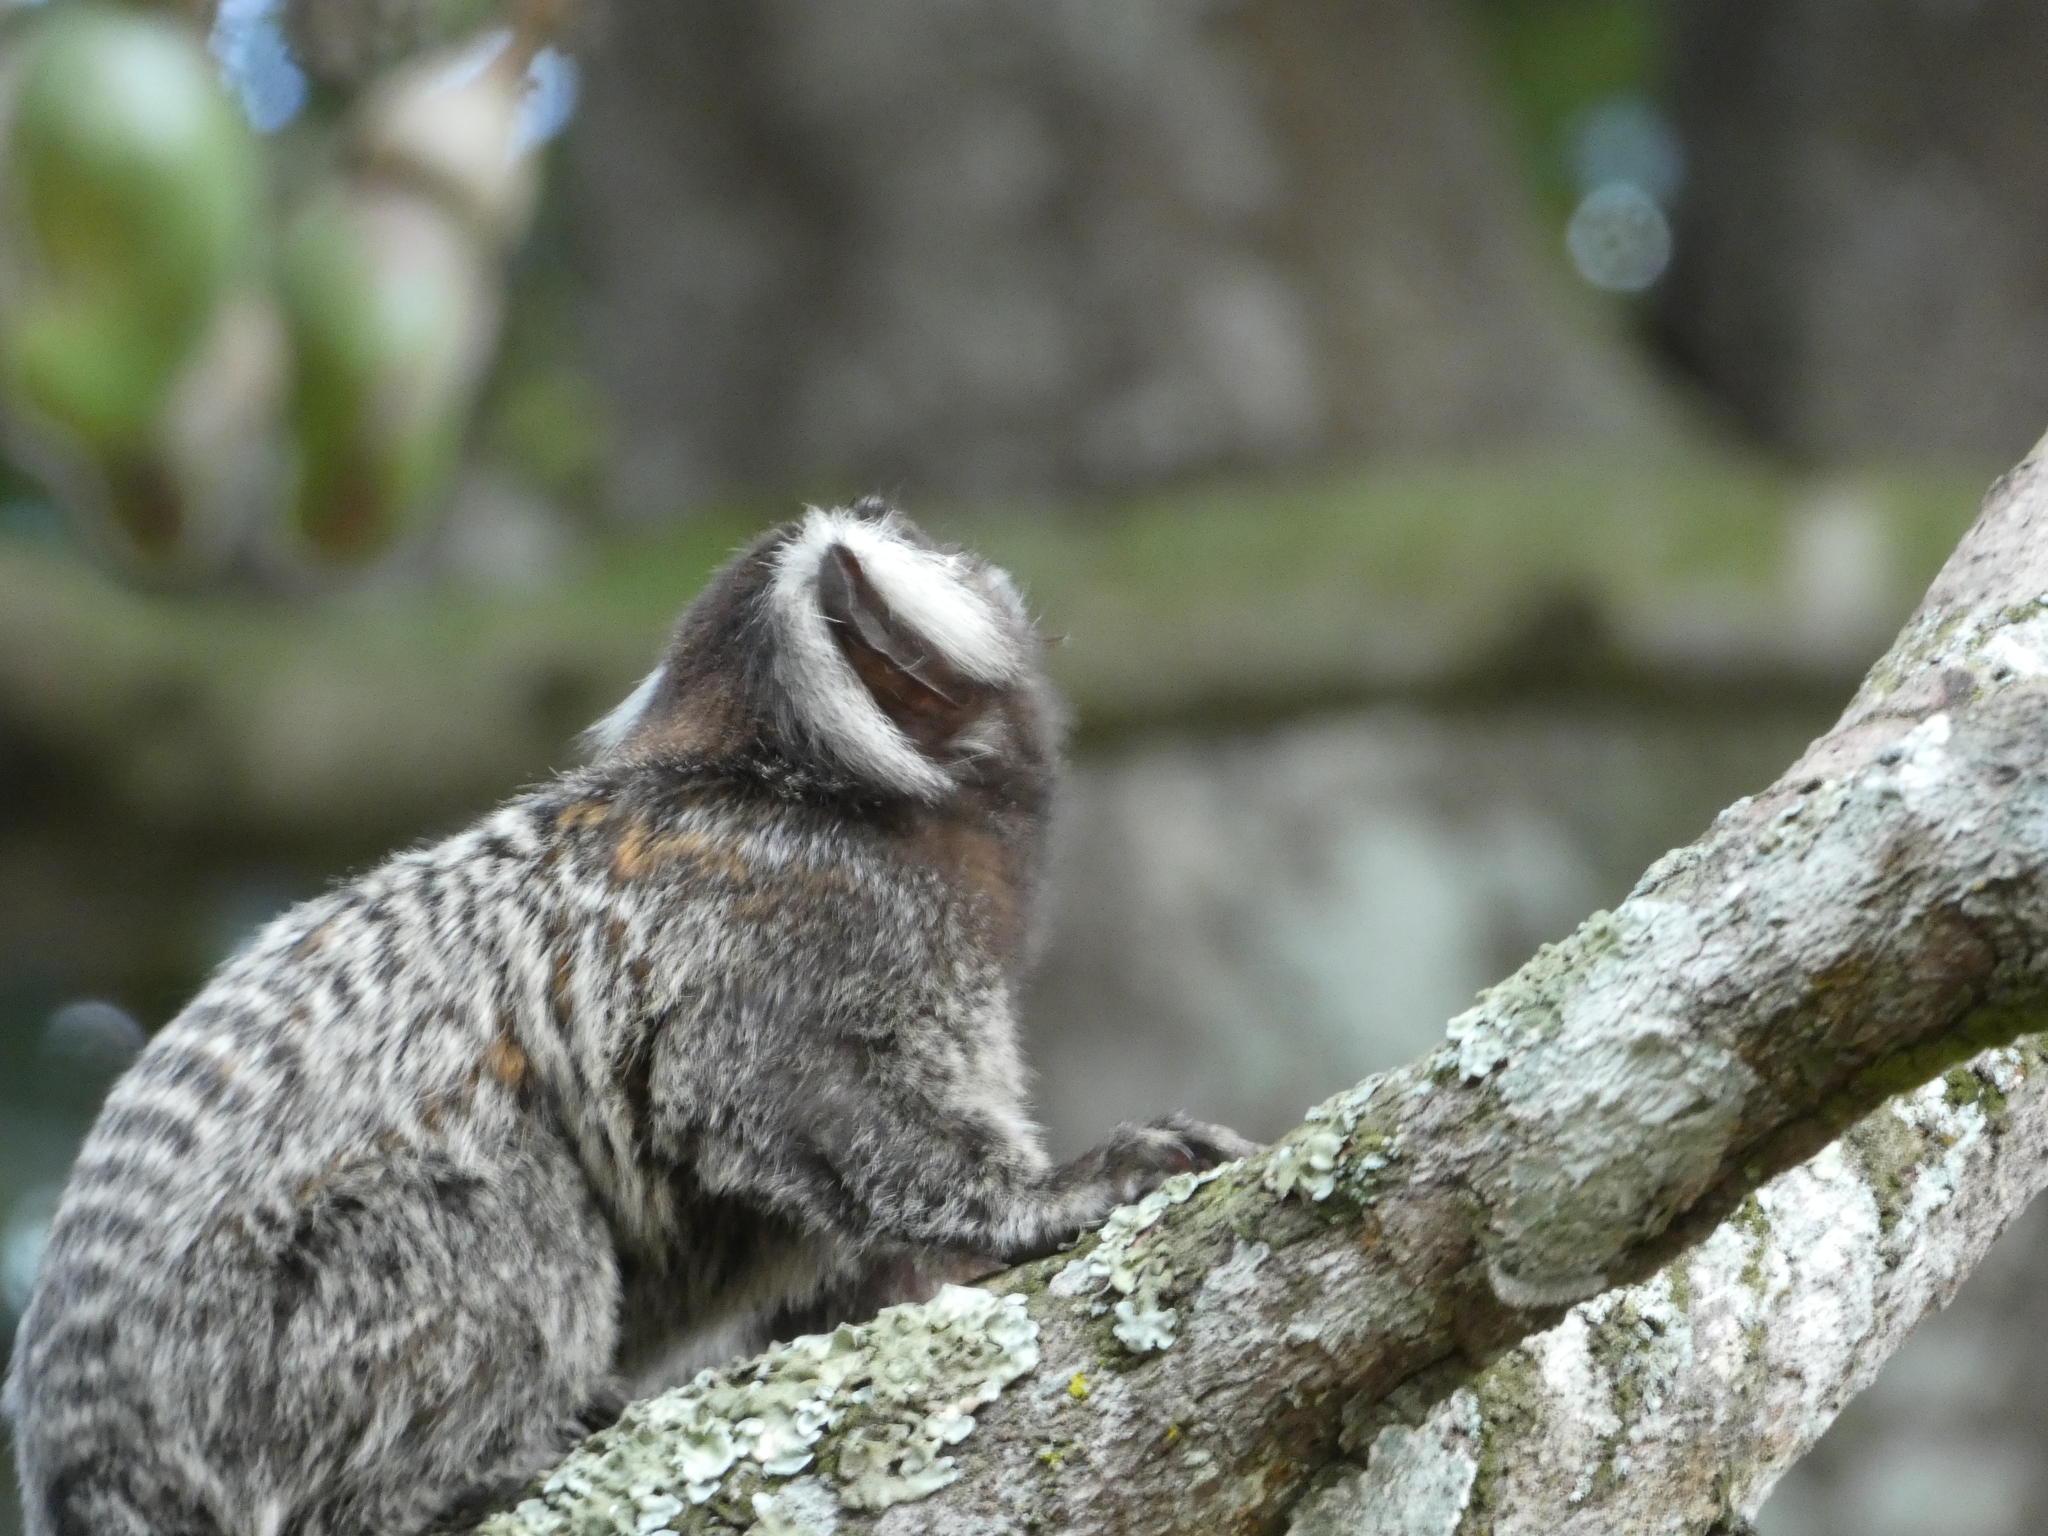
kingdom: Animalia
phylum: Chordata
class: Mammalia
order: Primates
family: Callitrichidae
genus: Callithrix
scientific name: Callithrix jacchus
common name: Common marmoset
